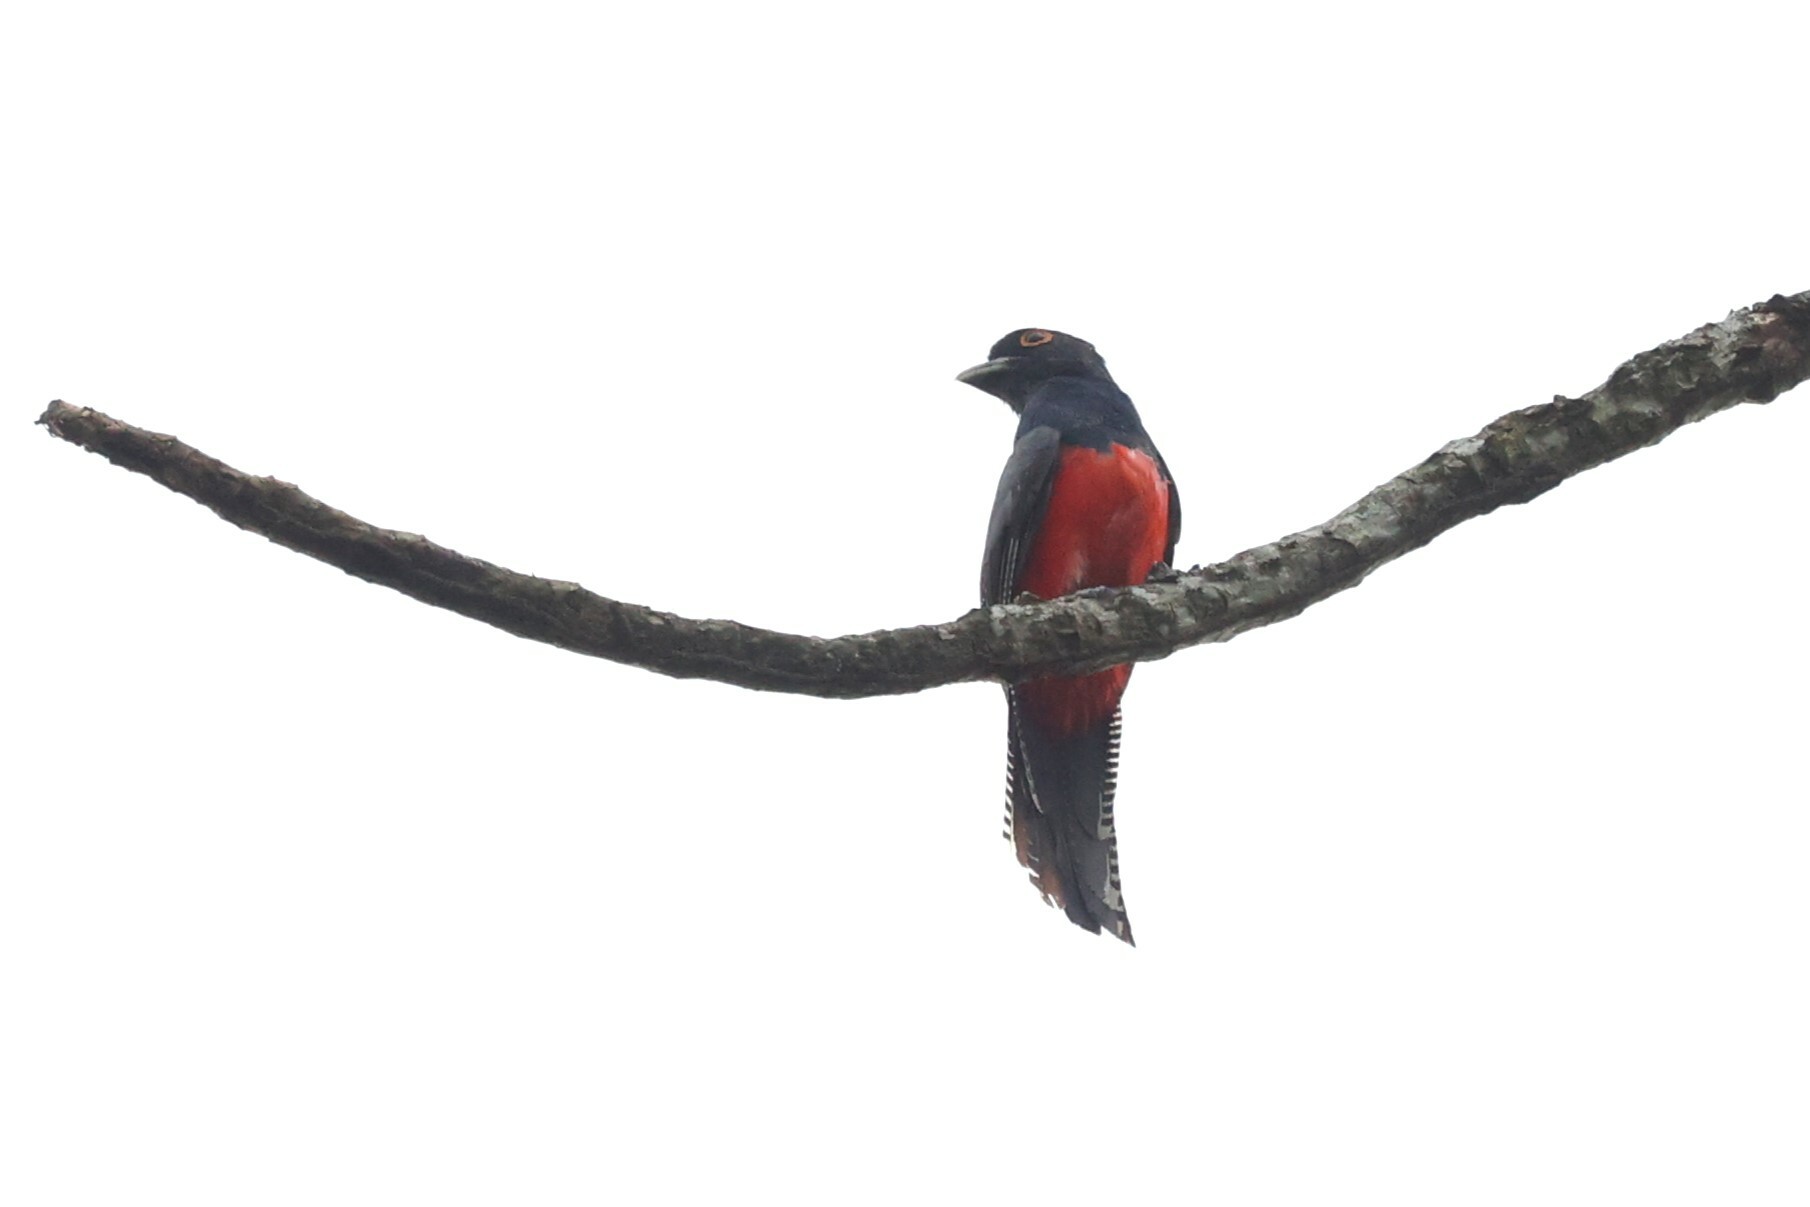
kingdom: Animalia
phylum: Chordata
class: Aves
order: Trogoniformes
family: Trogonidae
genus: Trogon
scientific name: Trogon curucui
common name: Blue-crowned trogon
